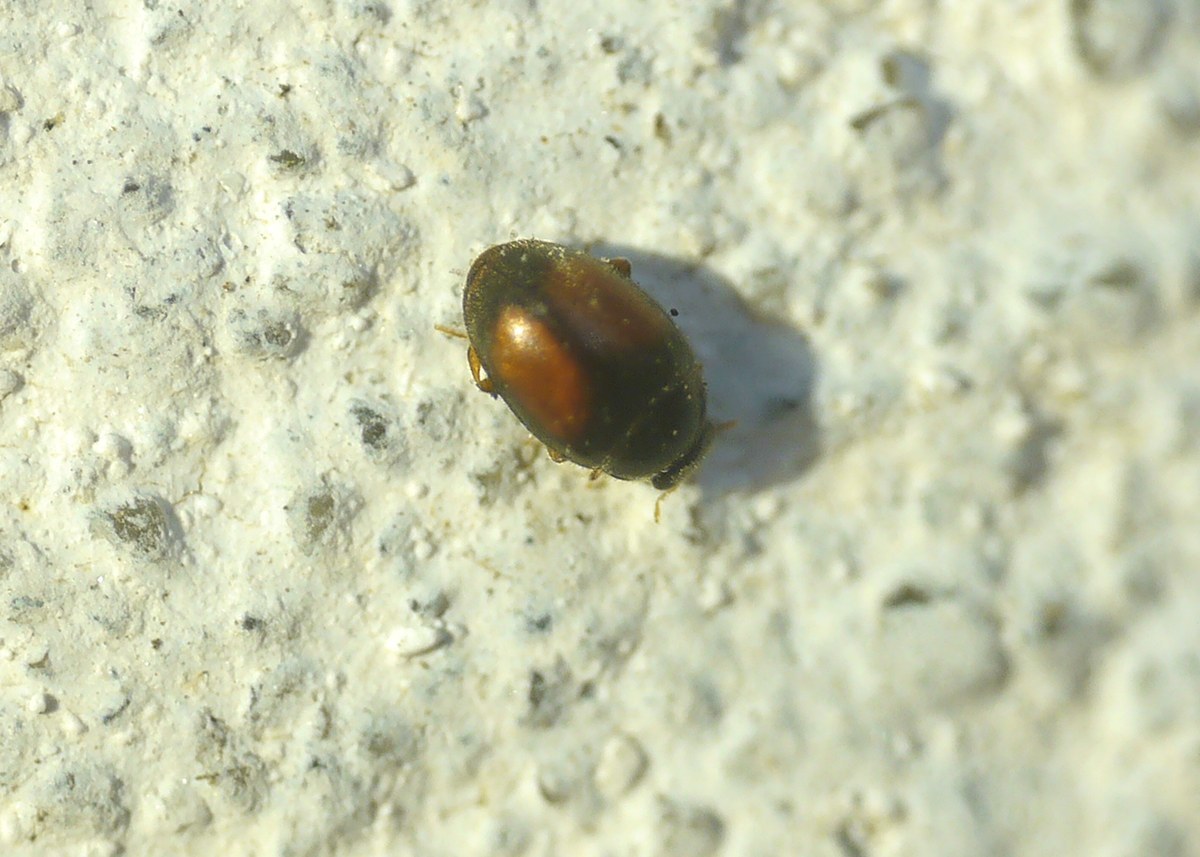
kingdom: Animalia
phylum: Arthropoda
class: Insecta
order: Coleoptera
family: Coccinellidae
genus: Scymnus
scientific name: Scymnus flagellisiphonatus
